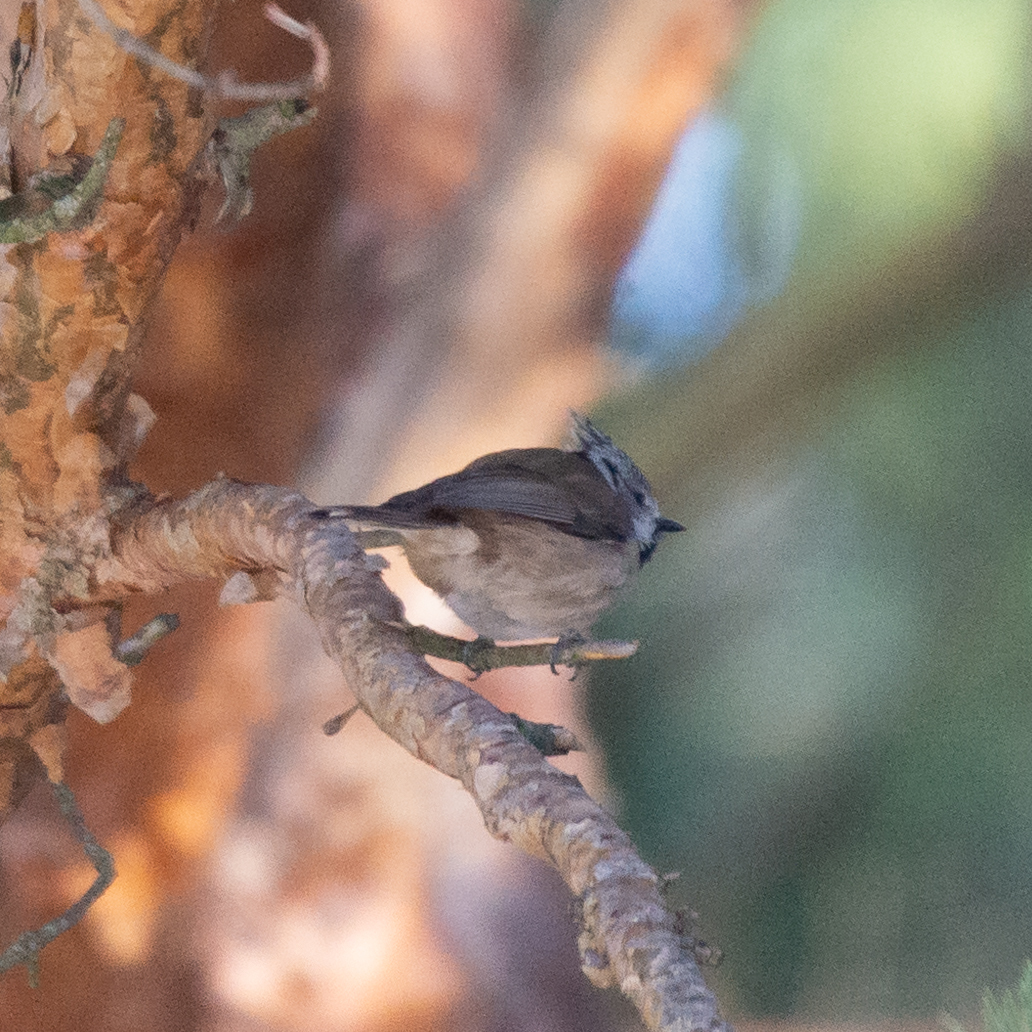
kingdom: Animalia
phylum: Chordata
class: Aves
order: Passeriformes
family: Paridae
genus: Lophophanes
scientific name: Lophophanes cristatus
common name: European crested tit
